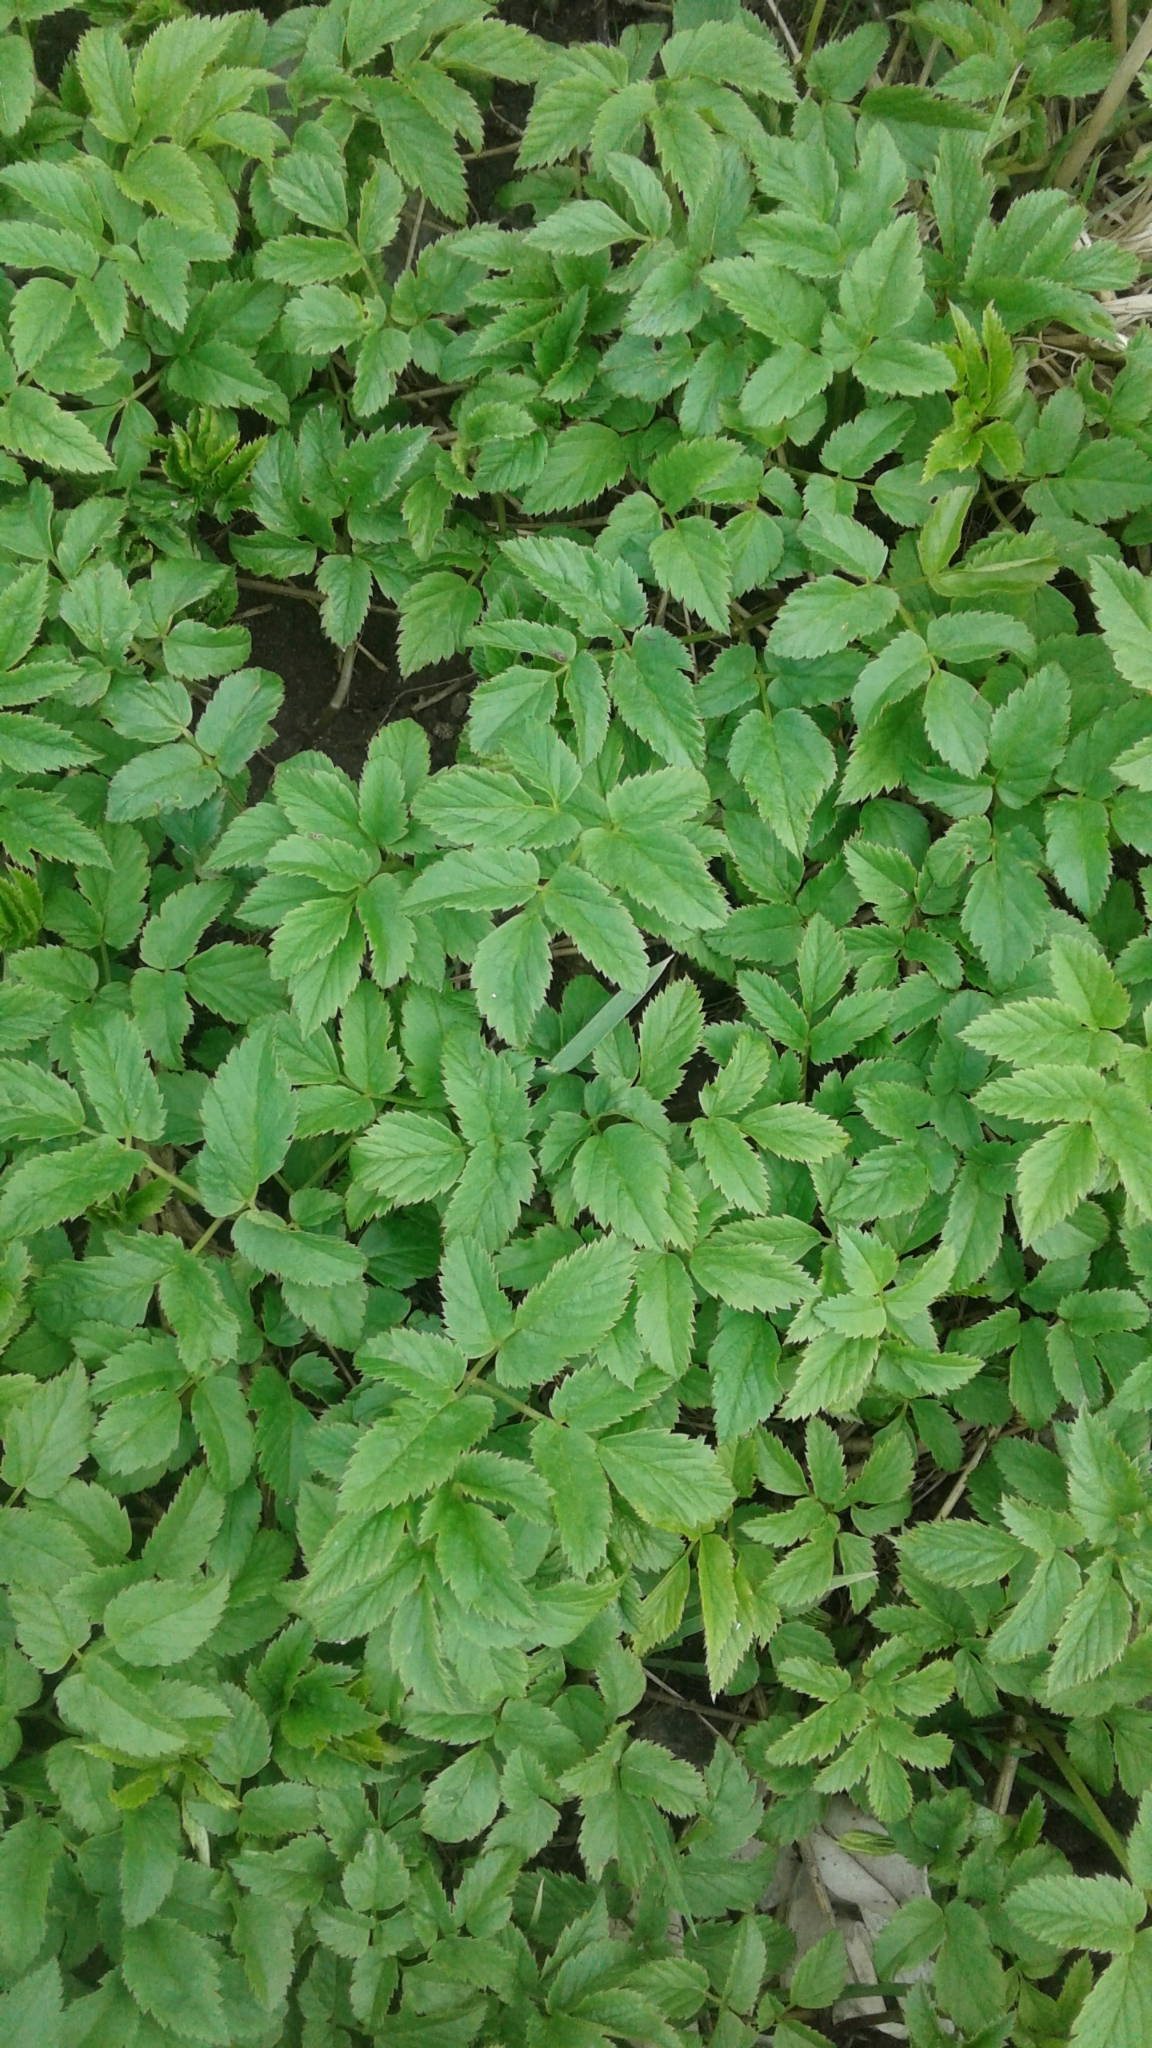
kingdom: Plantae
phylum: Tracheophyta
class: Magnoliopsida
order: Apiales
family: Apiaceae
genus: Aegopodium
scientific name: Aegopodium podagraria
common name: Ground-elder
